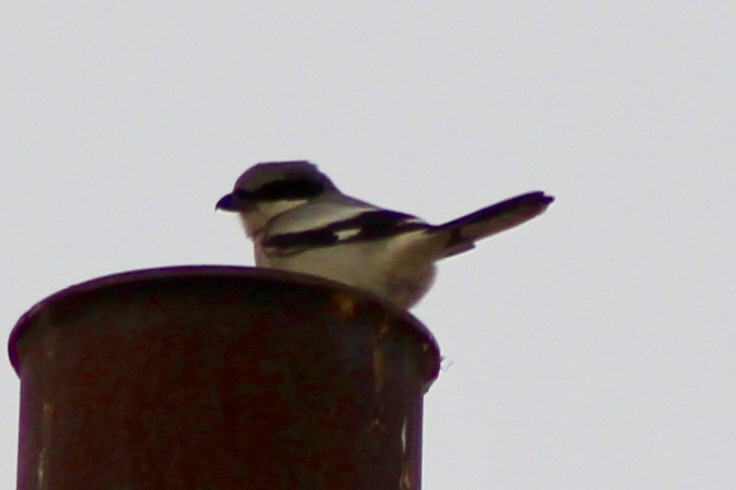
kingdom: Animalia
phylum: Chordata
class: Aves
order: Passeriformes
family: Laniidae
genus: Lanius
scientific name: Lanius ludovicianus
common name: Loggerhead shrike
